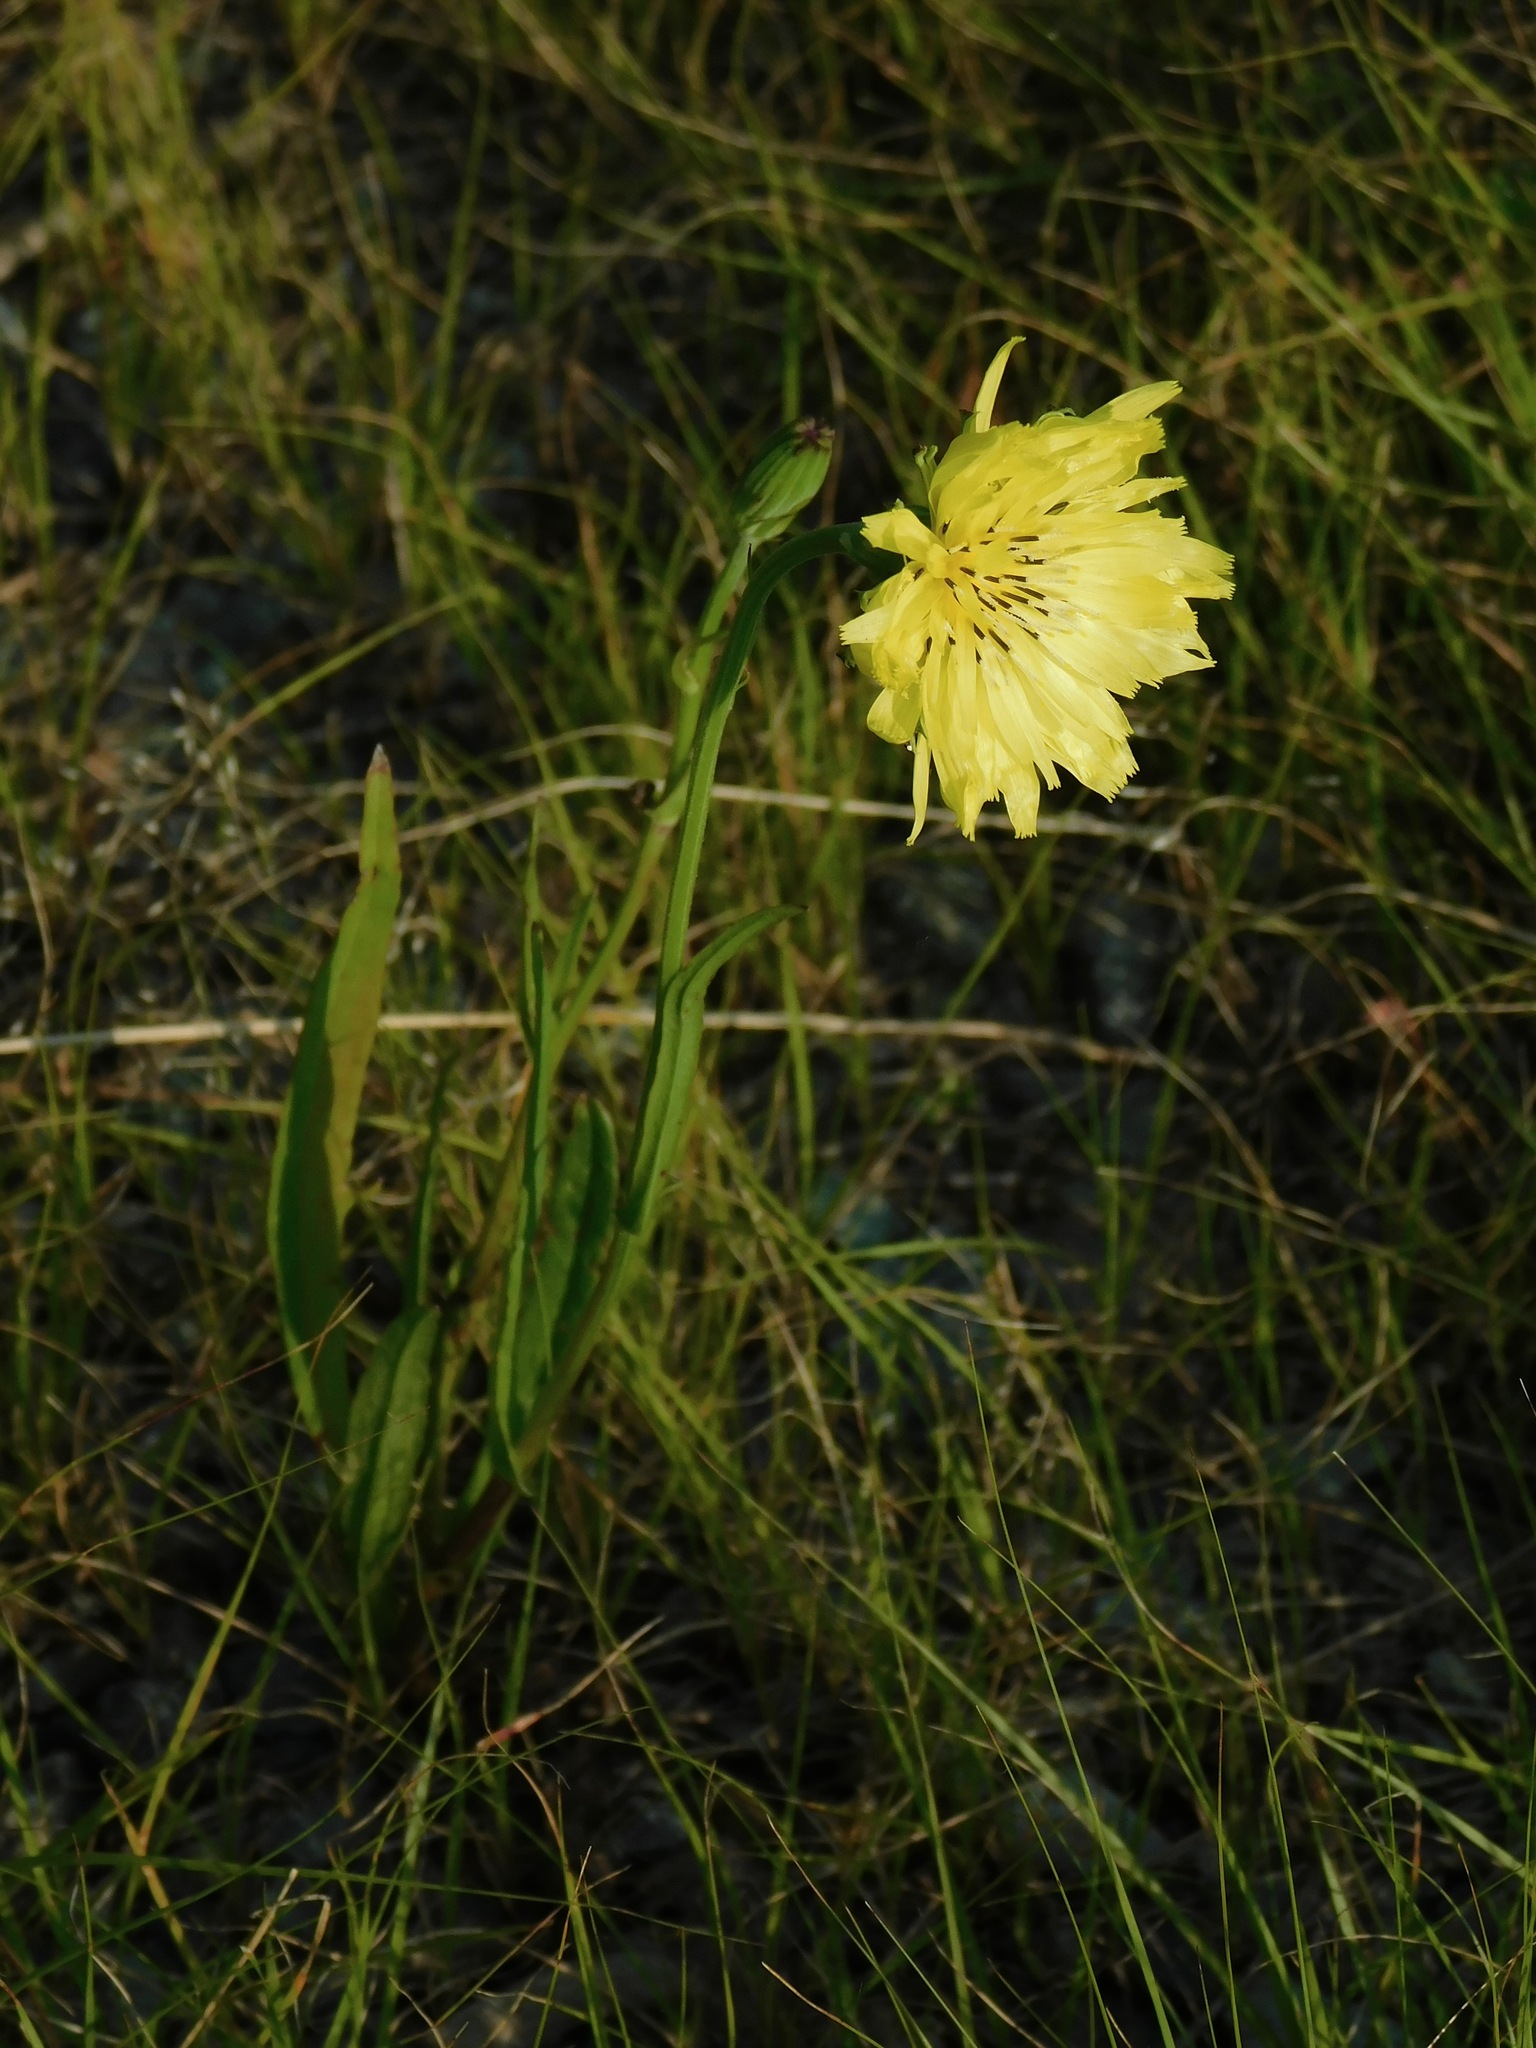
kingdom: Plantae
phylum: Tracheophyta
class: Magnoliopsida
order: Asterales
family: Asteraceae
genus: Pyrrhopappus
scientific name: Pyrrhopappus carolinianus
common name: Carolina desert-chicory
